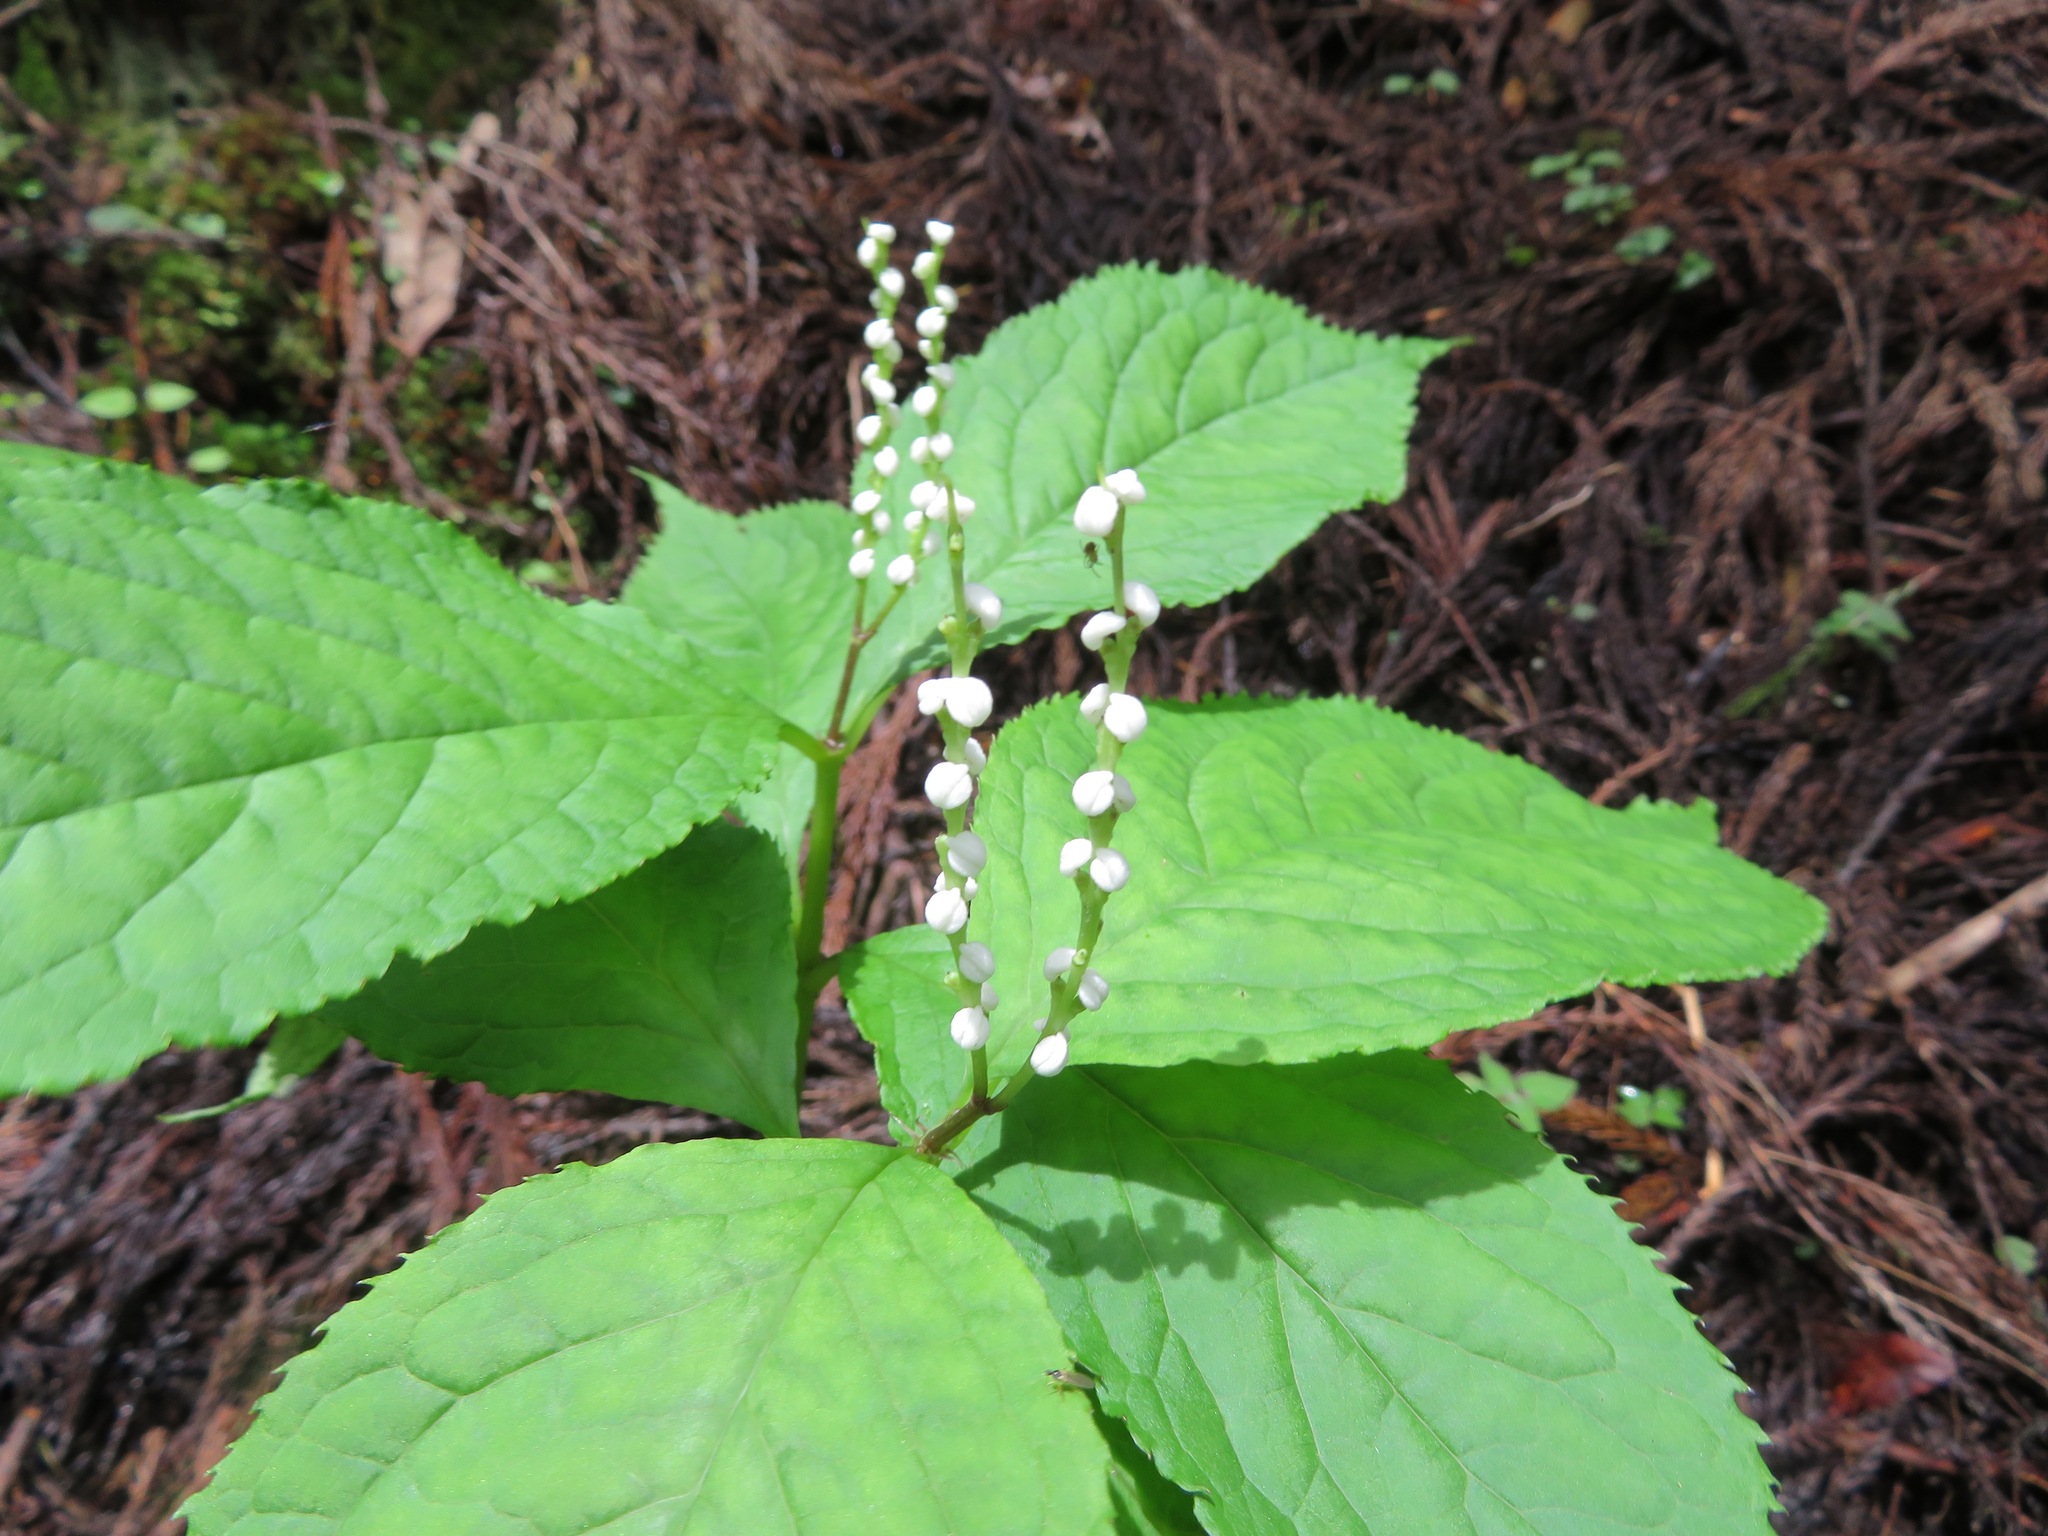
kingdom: Plantae
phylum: Tracheophyta
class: Magnoliopsida
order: Chloranthales
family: Chloranthaceae
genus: Chloranthus
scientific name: Chloranthus serratus
